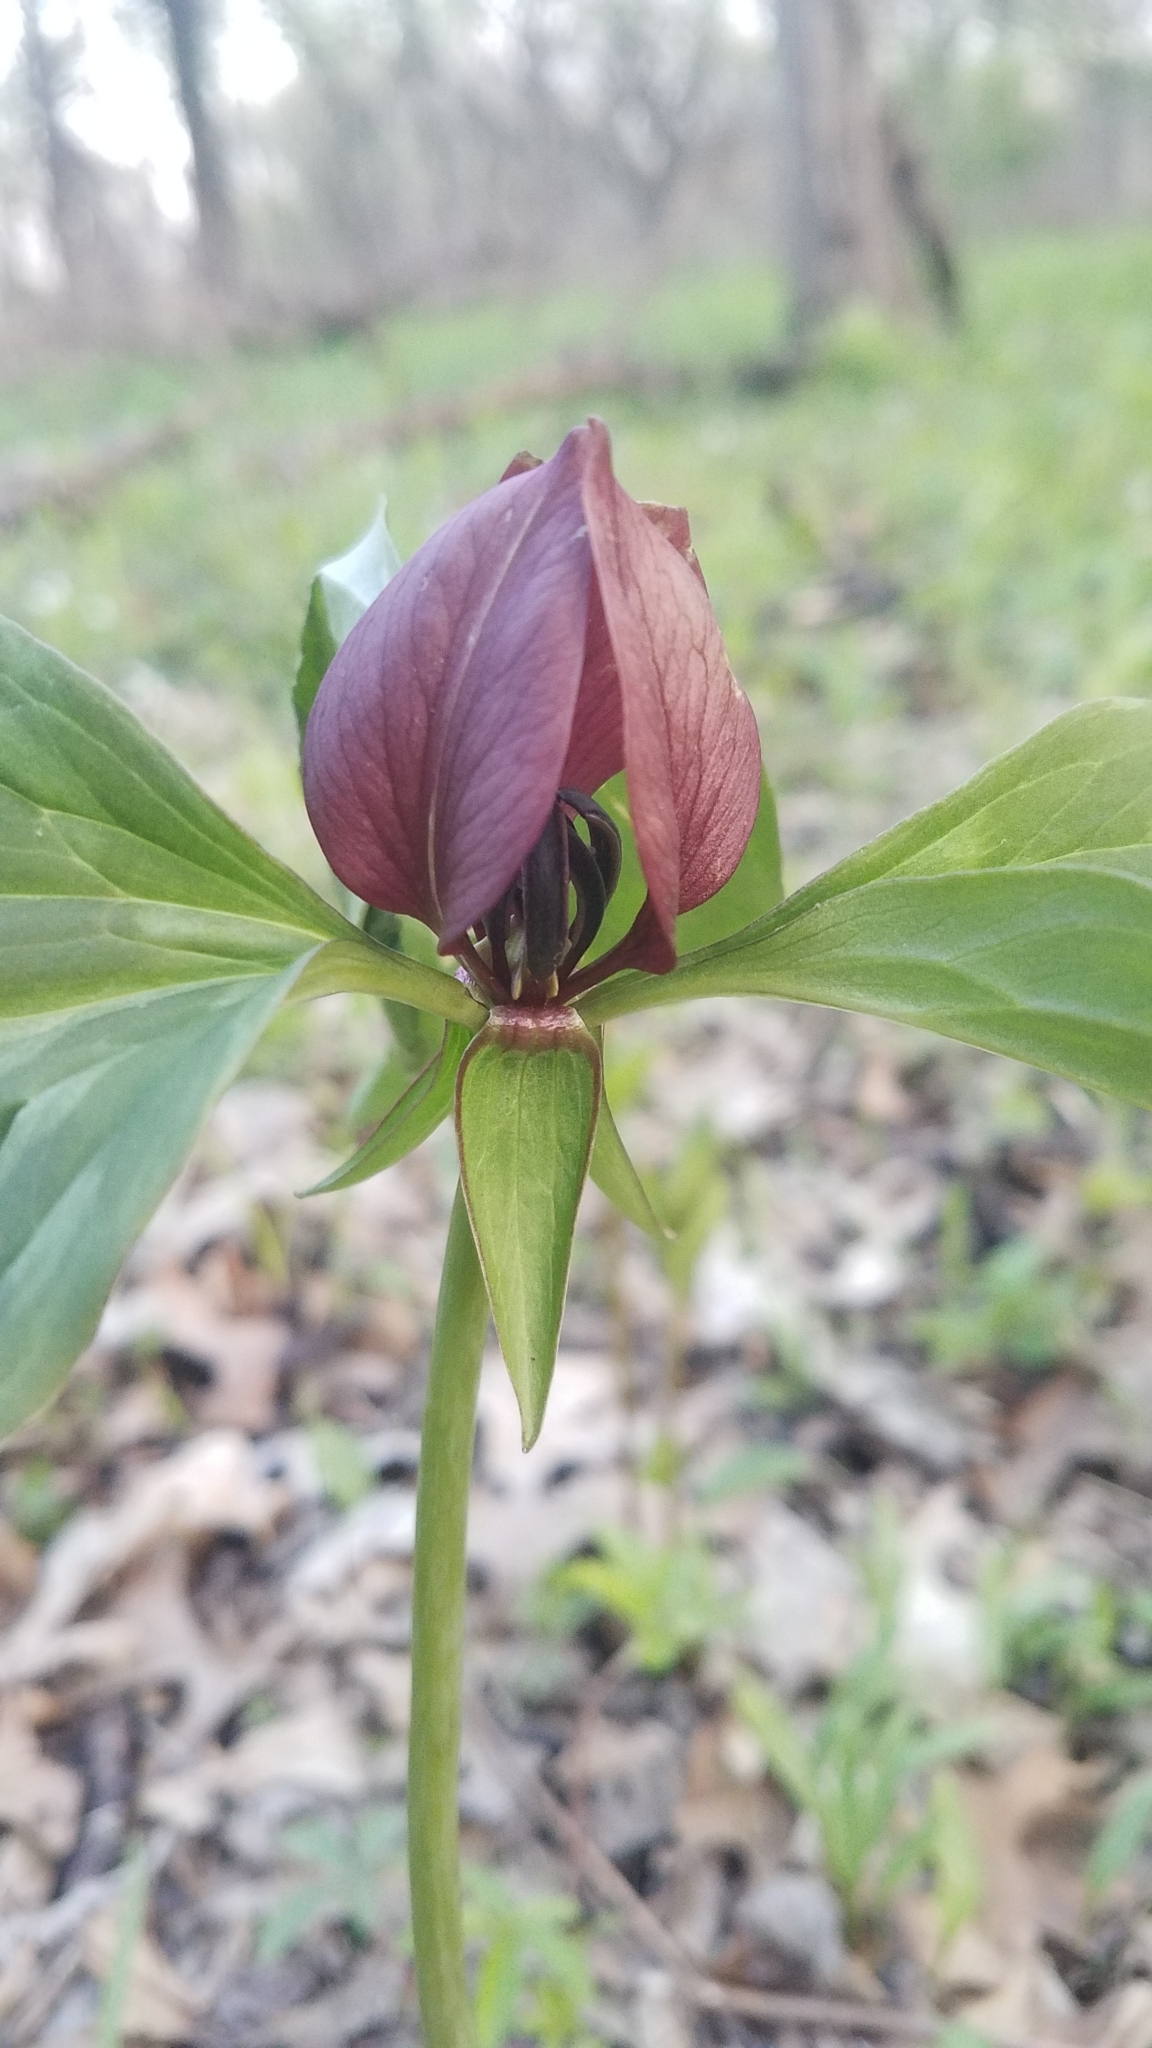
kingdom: Plantae
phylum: Tracheophyta
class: Liliopsida
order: Liliales
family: Melanthiaceae
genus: Trillium
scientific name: Trillium recurvatum
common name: Bloody butcher
